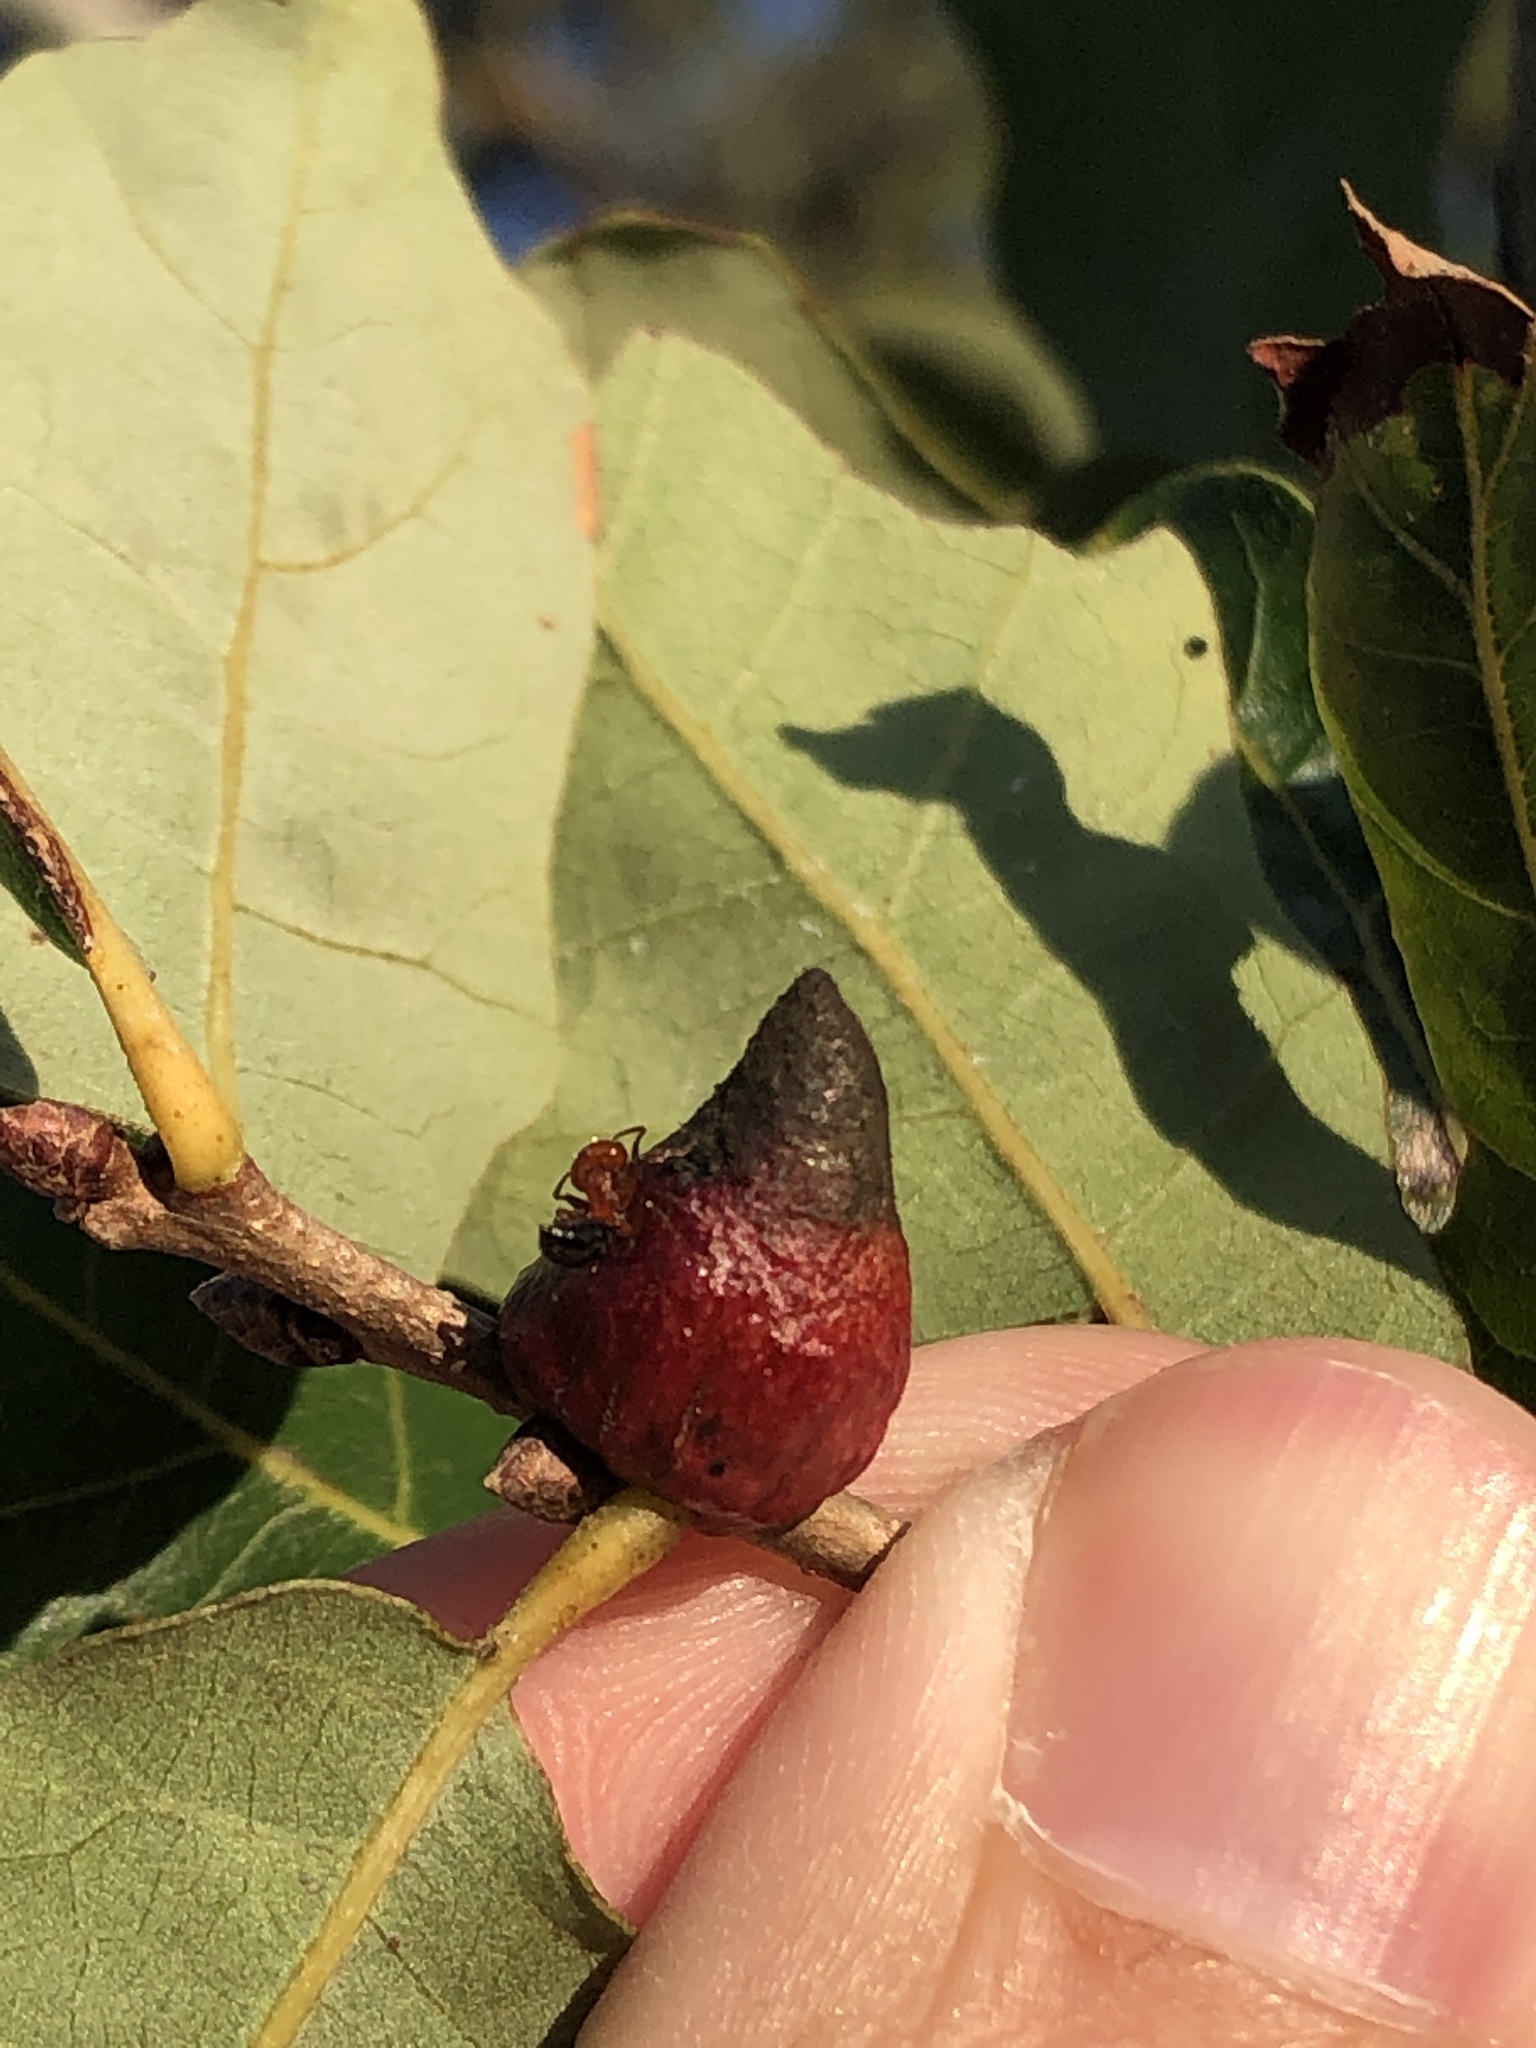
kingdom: Animalia
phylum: Arthropoda
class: Insecta
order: Hymenoptera
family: Cynipidae
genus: Disholcaspis
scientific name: Disholcaspis
